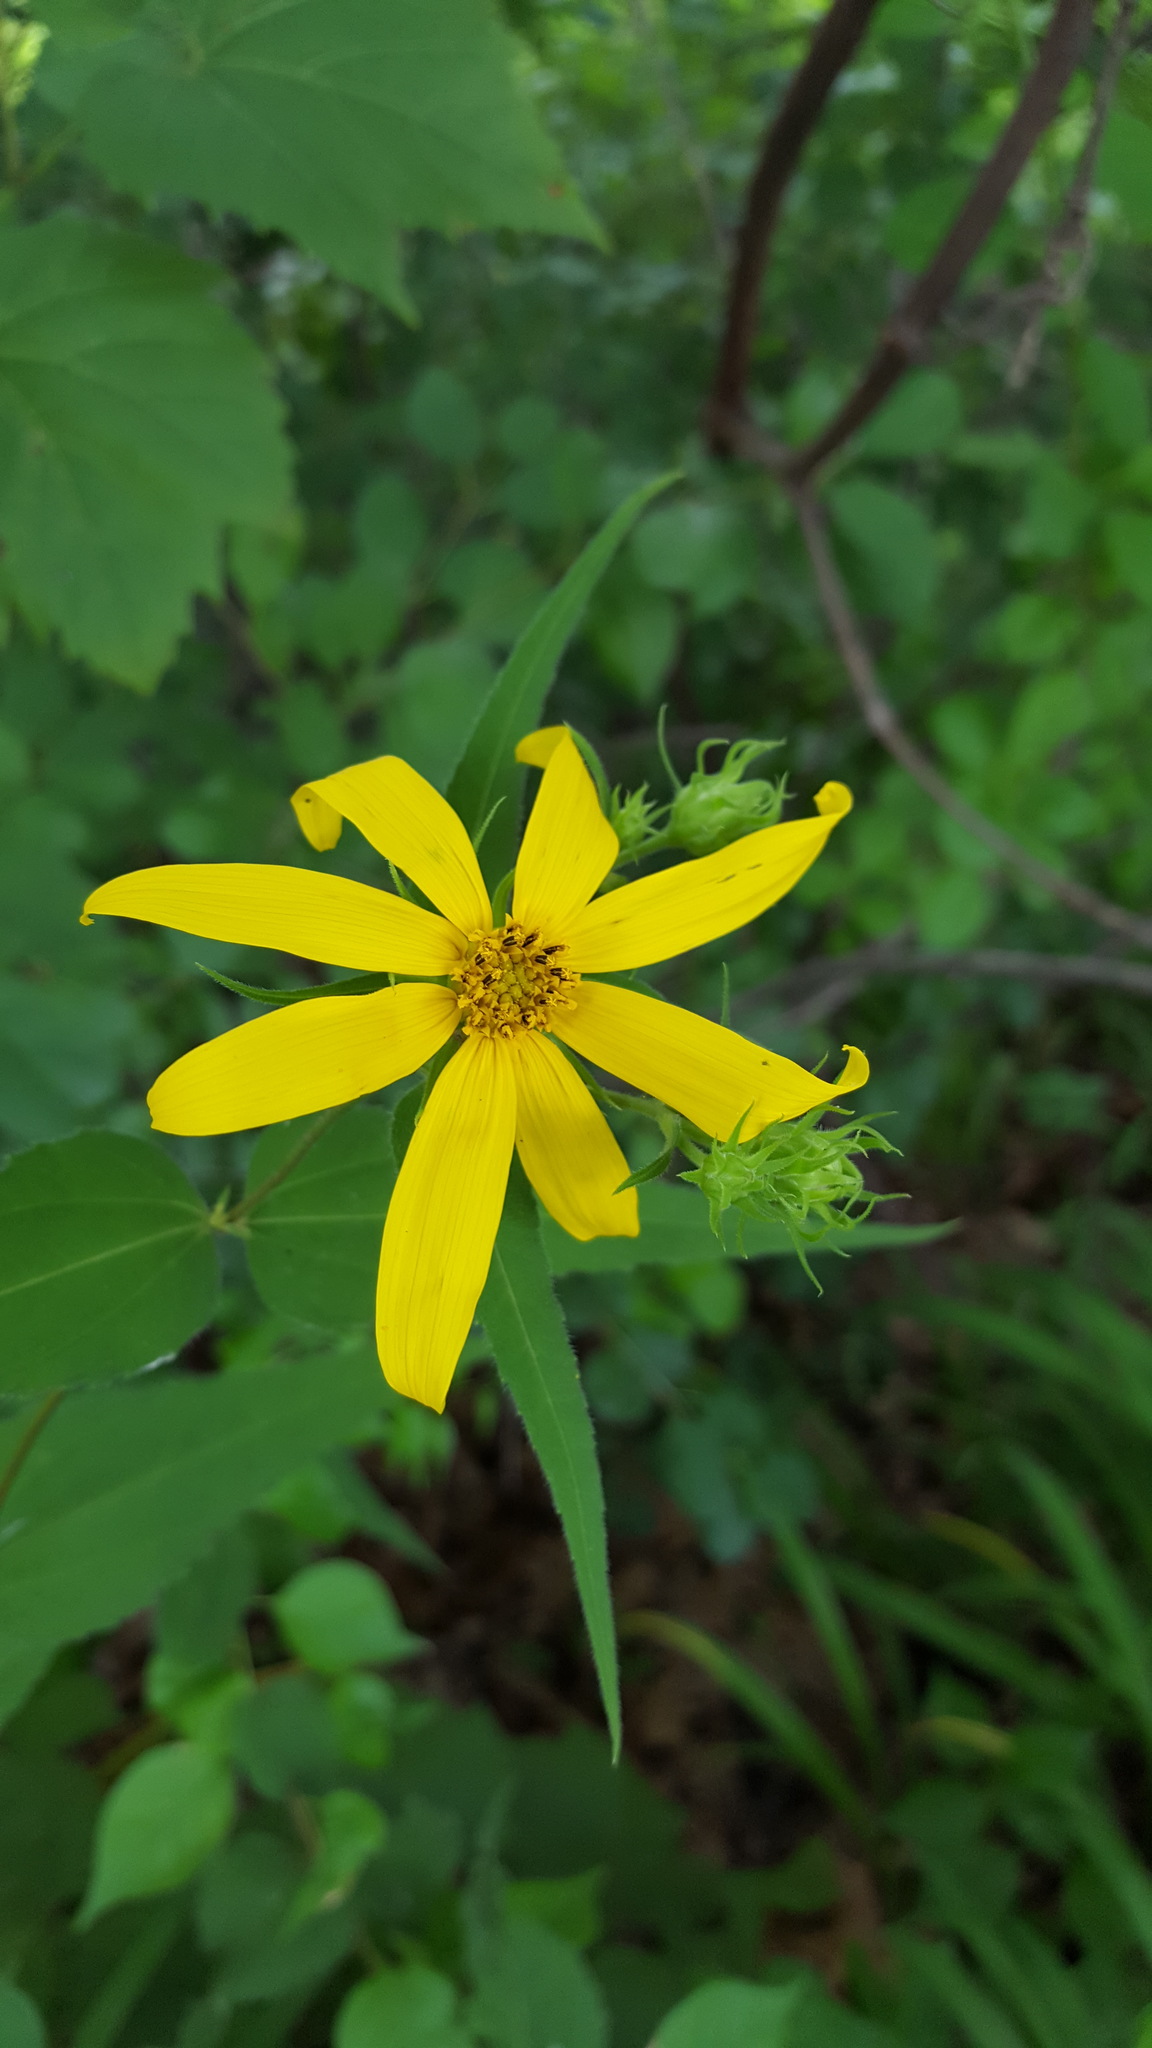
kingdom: Plantae
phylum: Tracheophyta
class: Magnoliopsida
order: Asterales
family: Asteraceae
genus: Helianthus
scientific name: Helianthus divaricatus
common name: Divergent sunflower
